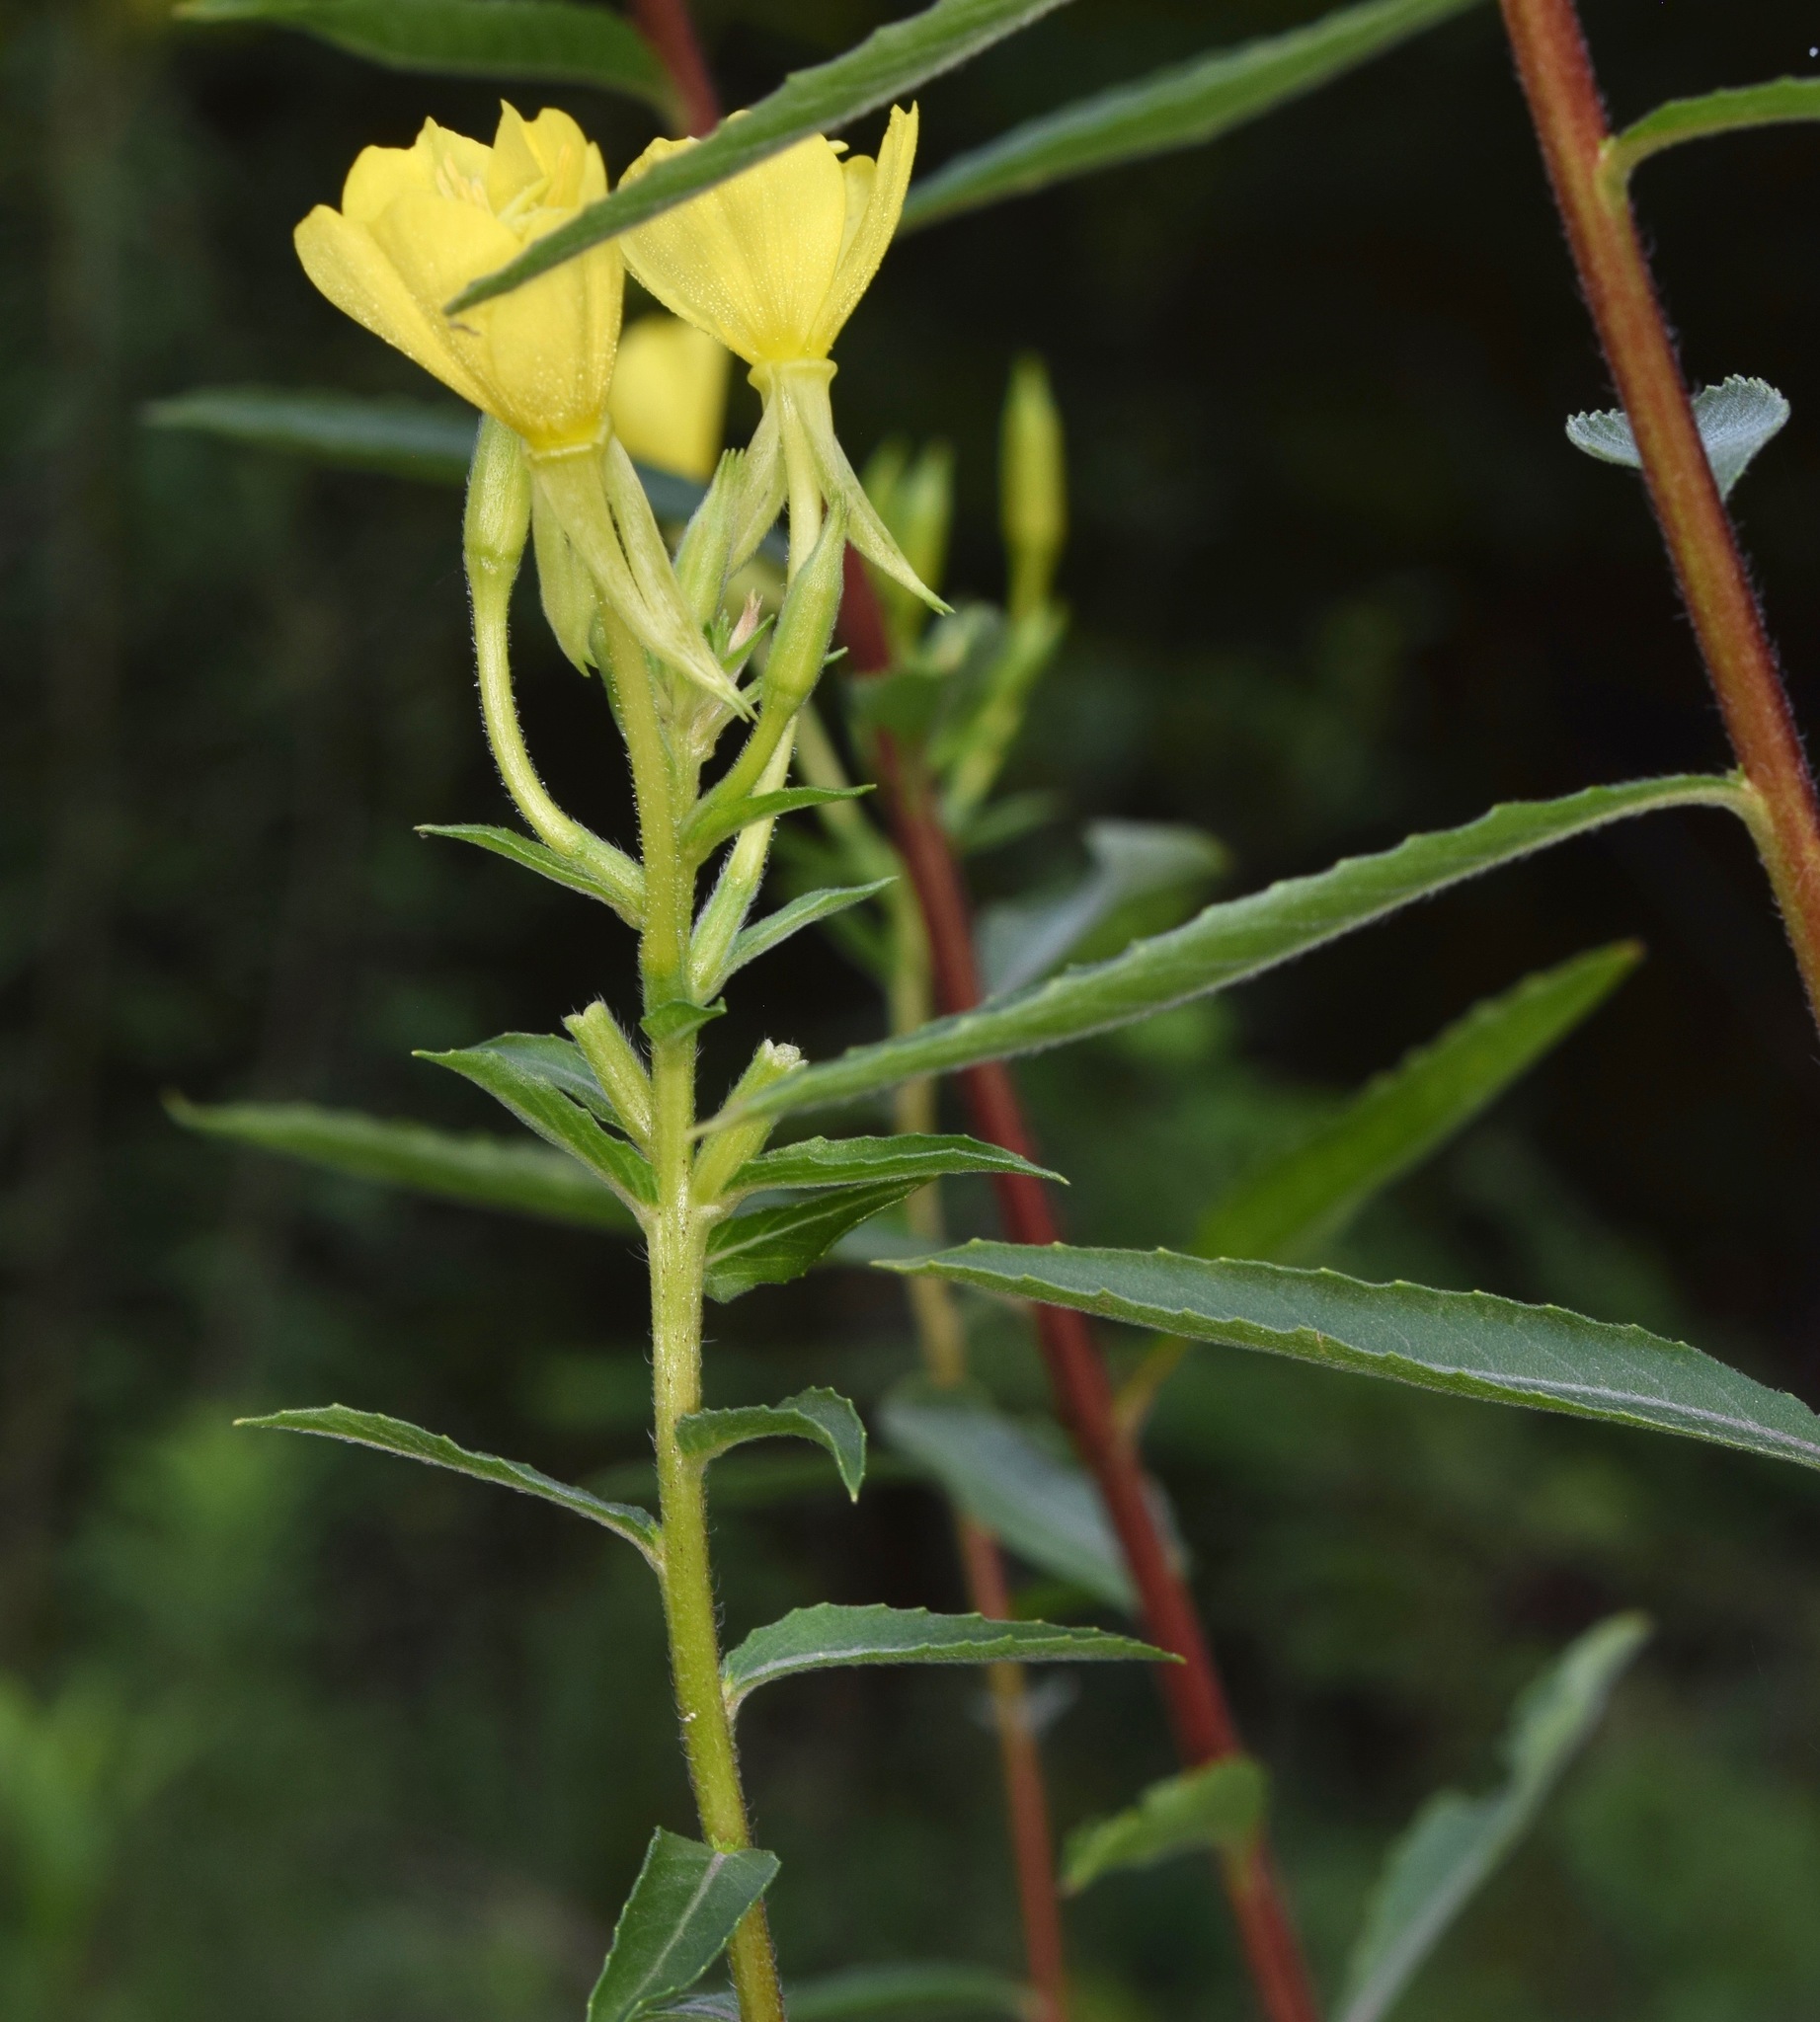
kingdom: Plantae
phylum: Tracheophyta
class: Magnoliopsida
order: Myrtales
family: Onagraceae
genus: Oenothera
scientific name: Oenothera biennis
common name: Common evening-primrose
